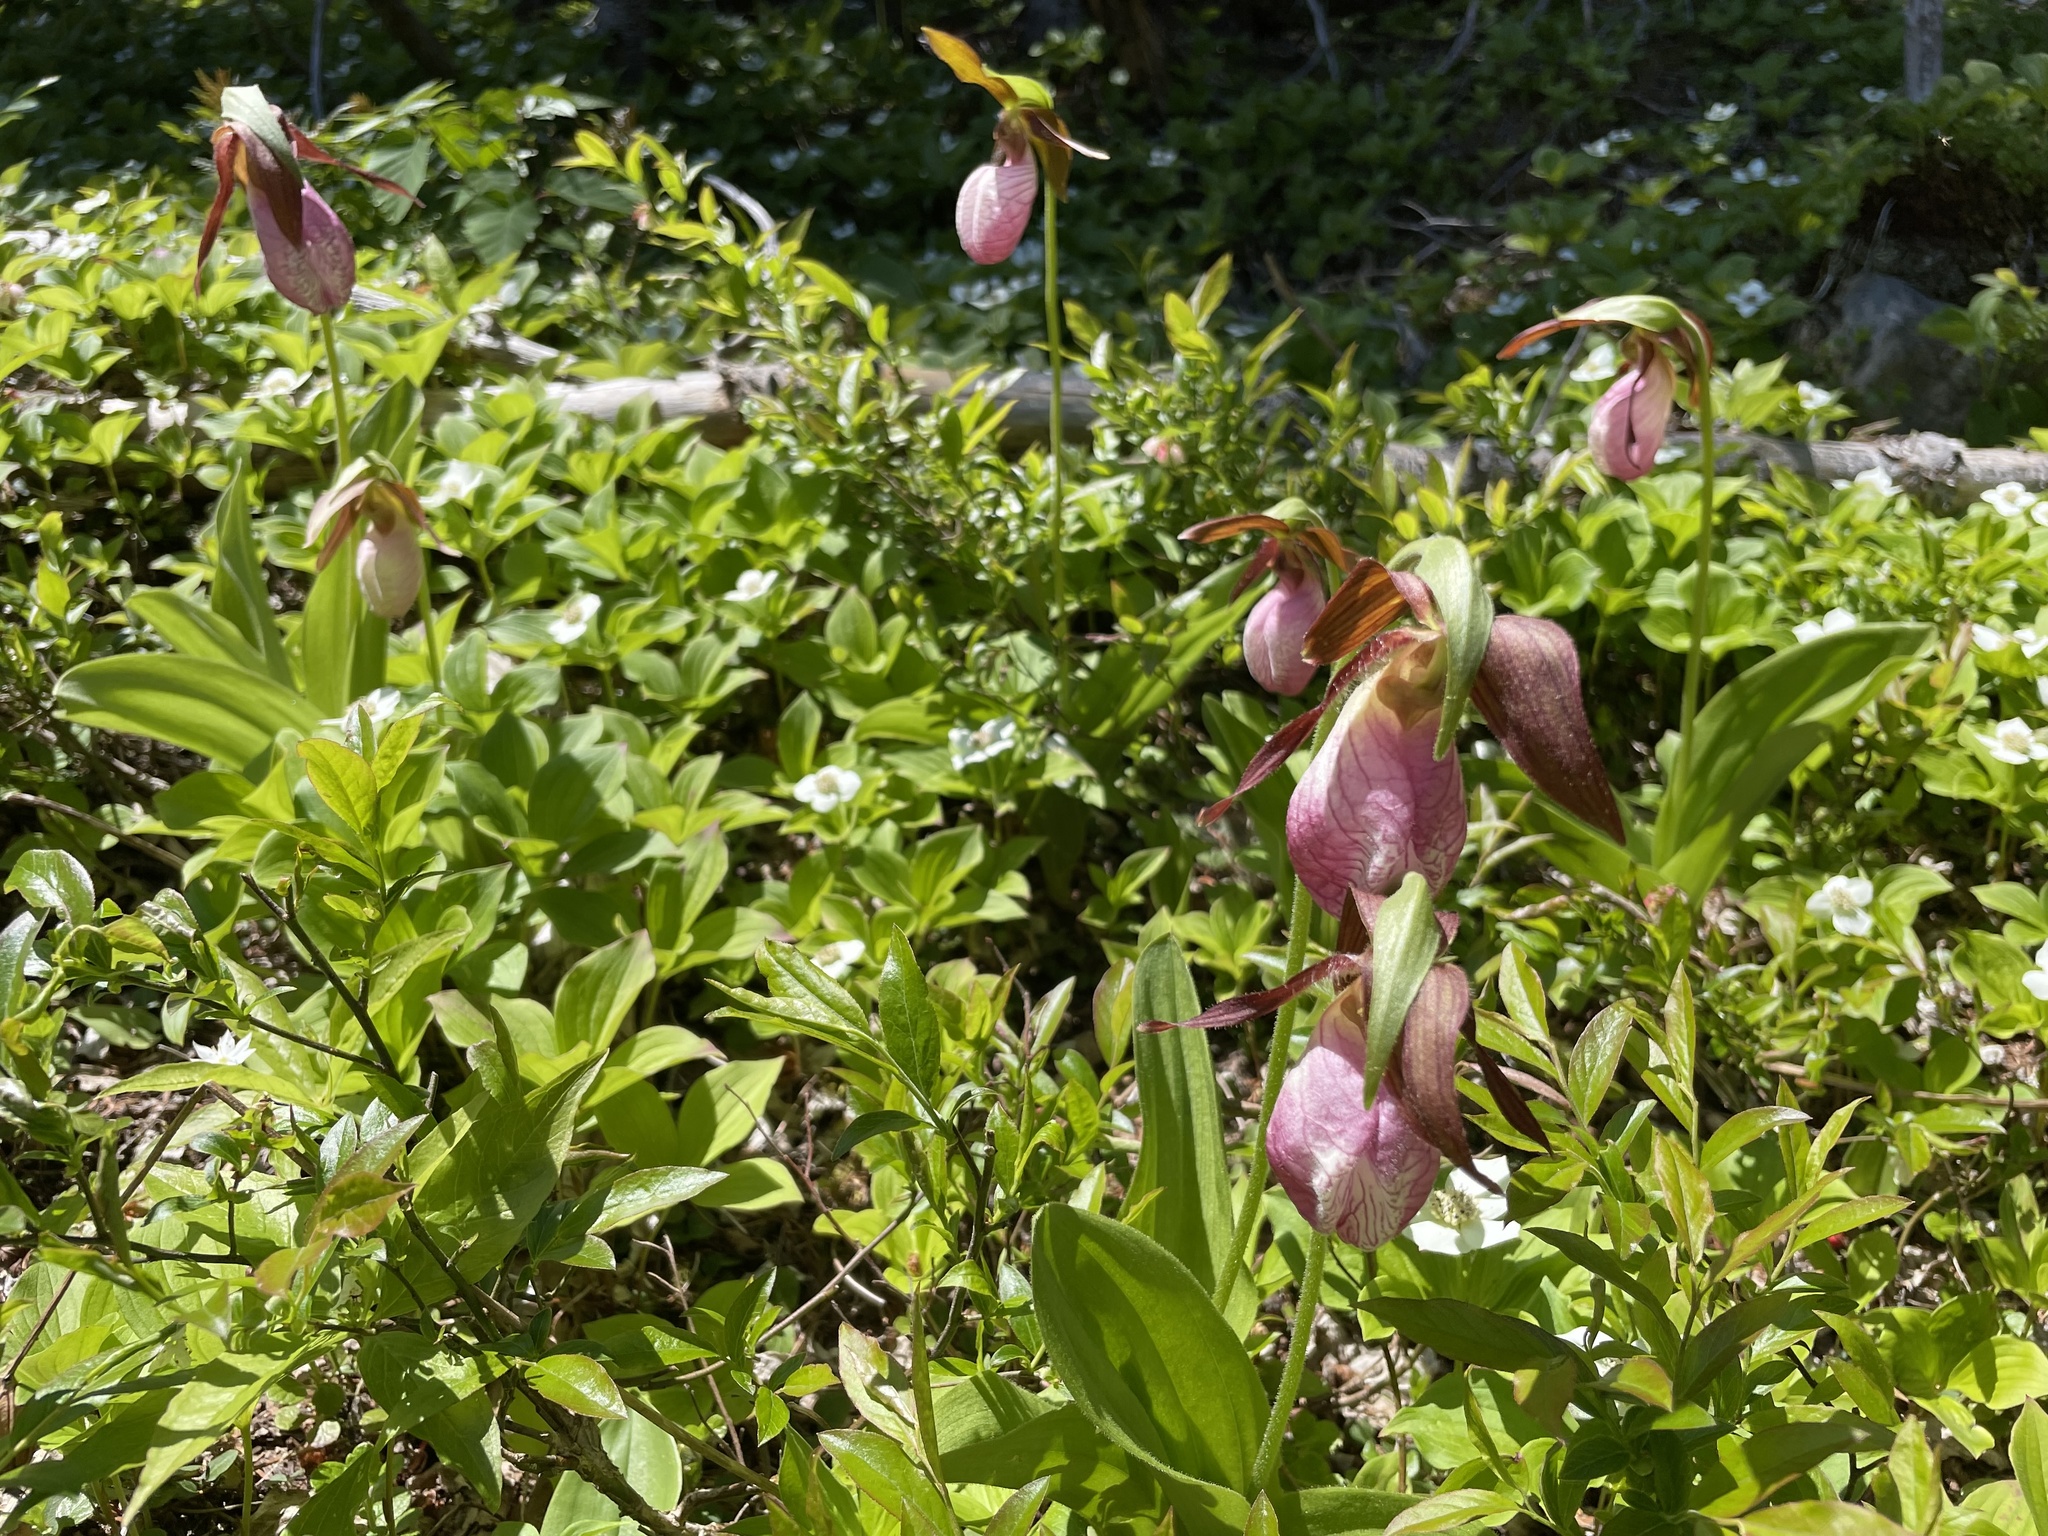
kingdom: Plantae
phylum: Tracheophyta
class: Liliopsida
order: Asparagales
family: Orchidaceae
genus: Cypripedium
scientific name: Cypripedium acaule
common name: Pink lady's-slipper
